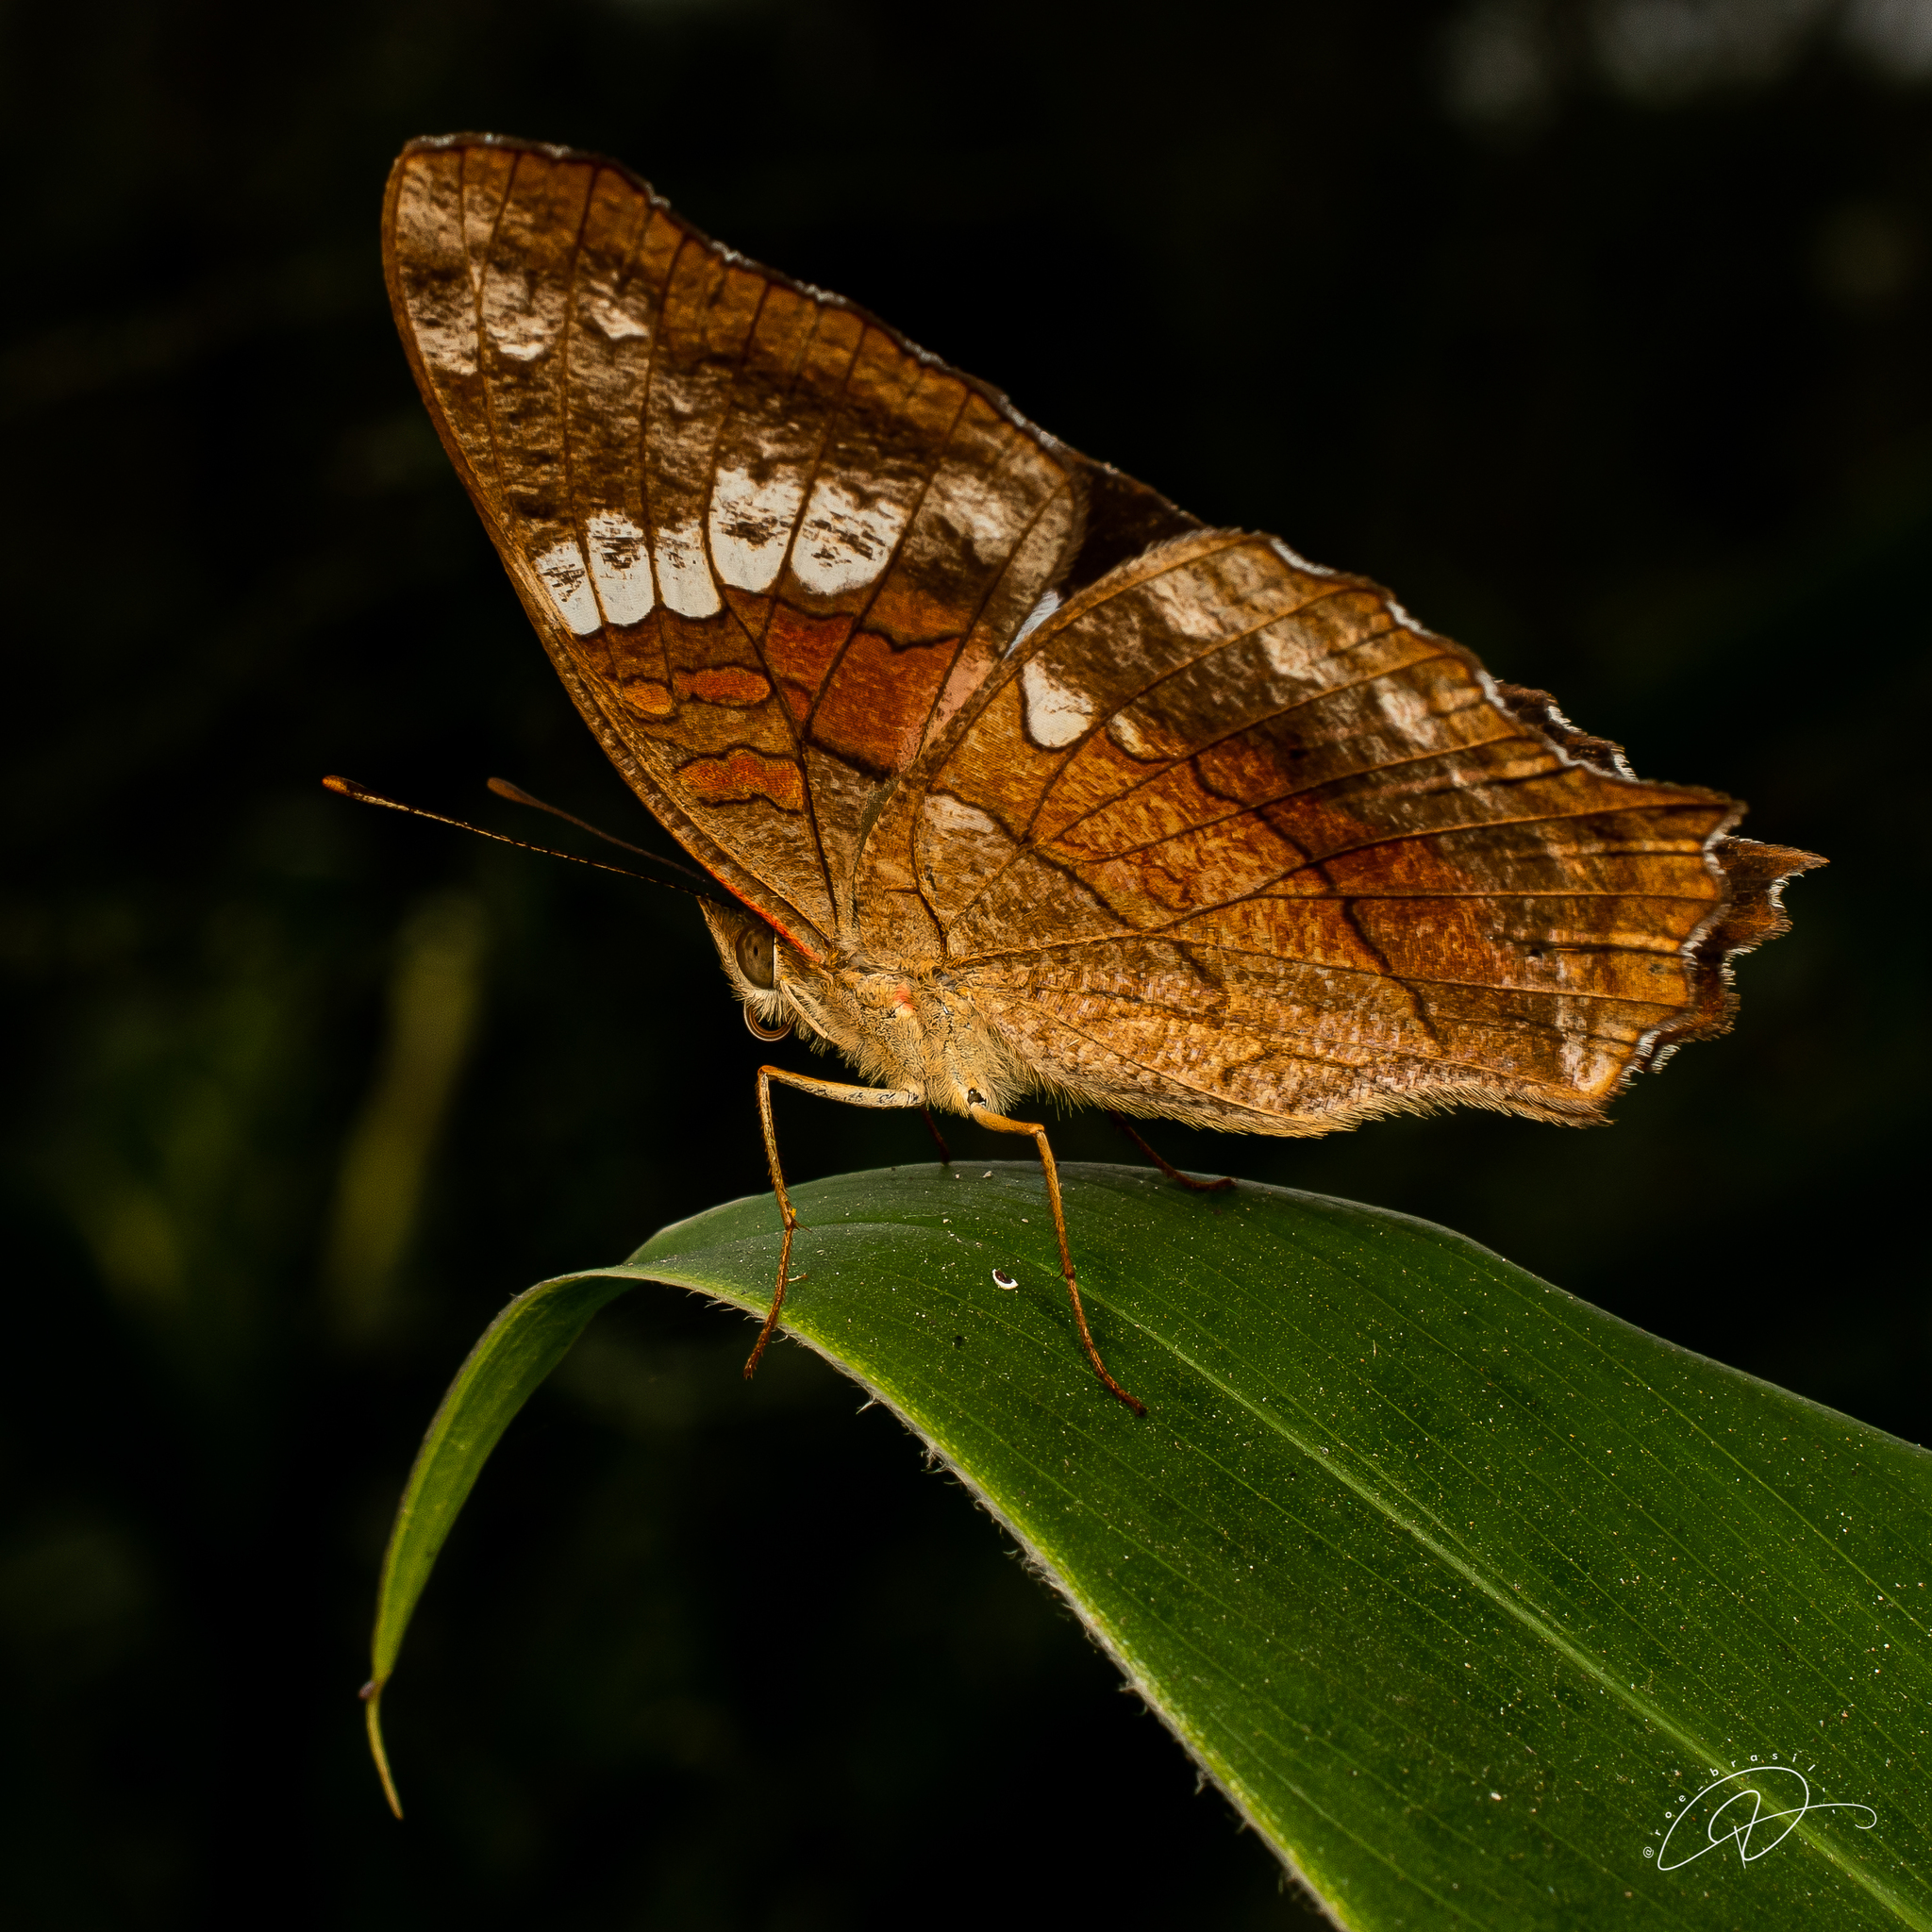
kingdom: Animalia
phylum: Arthropoda
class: Insecta
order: Lepidoptera
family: Nymphalidae
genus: Anartia
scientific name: Anartia amathea
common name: Red peacock
